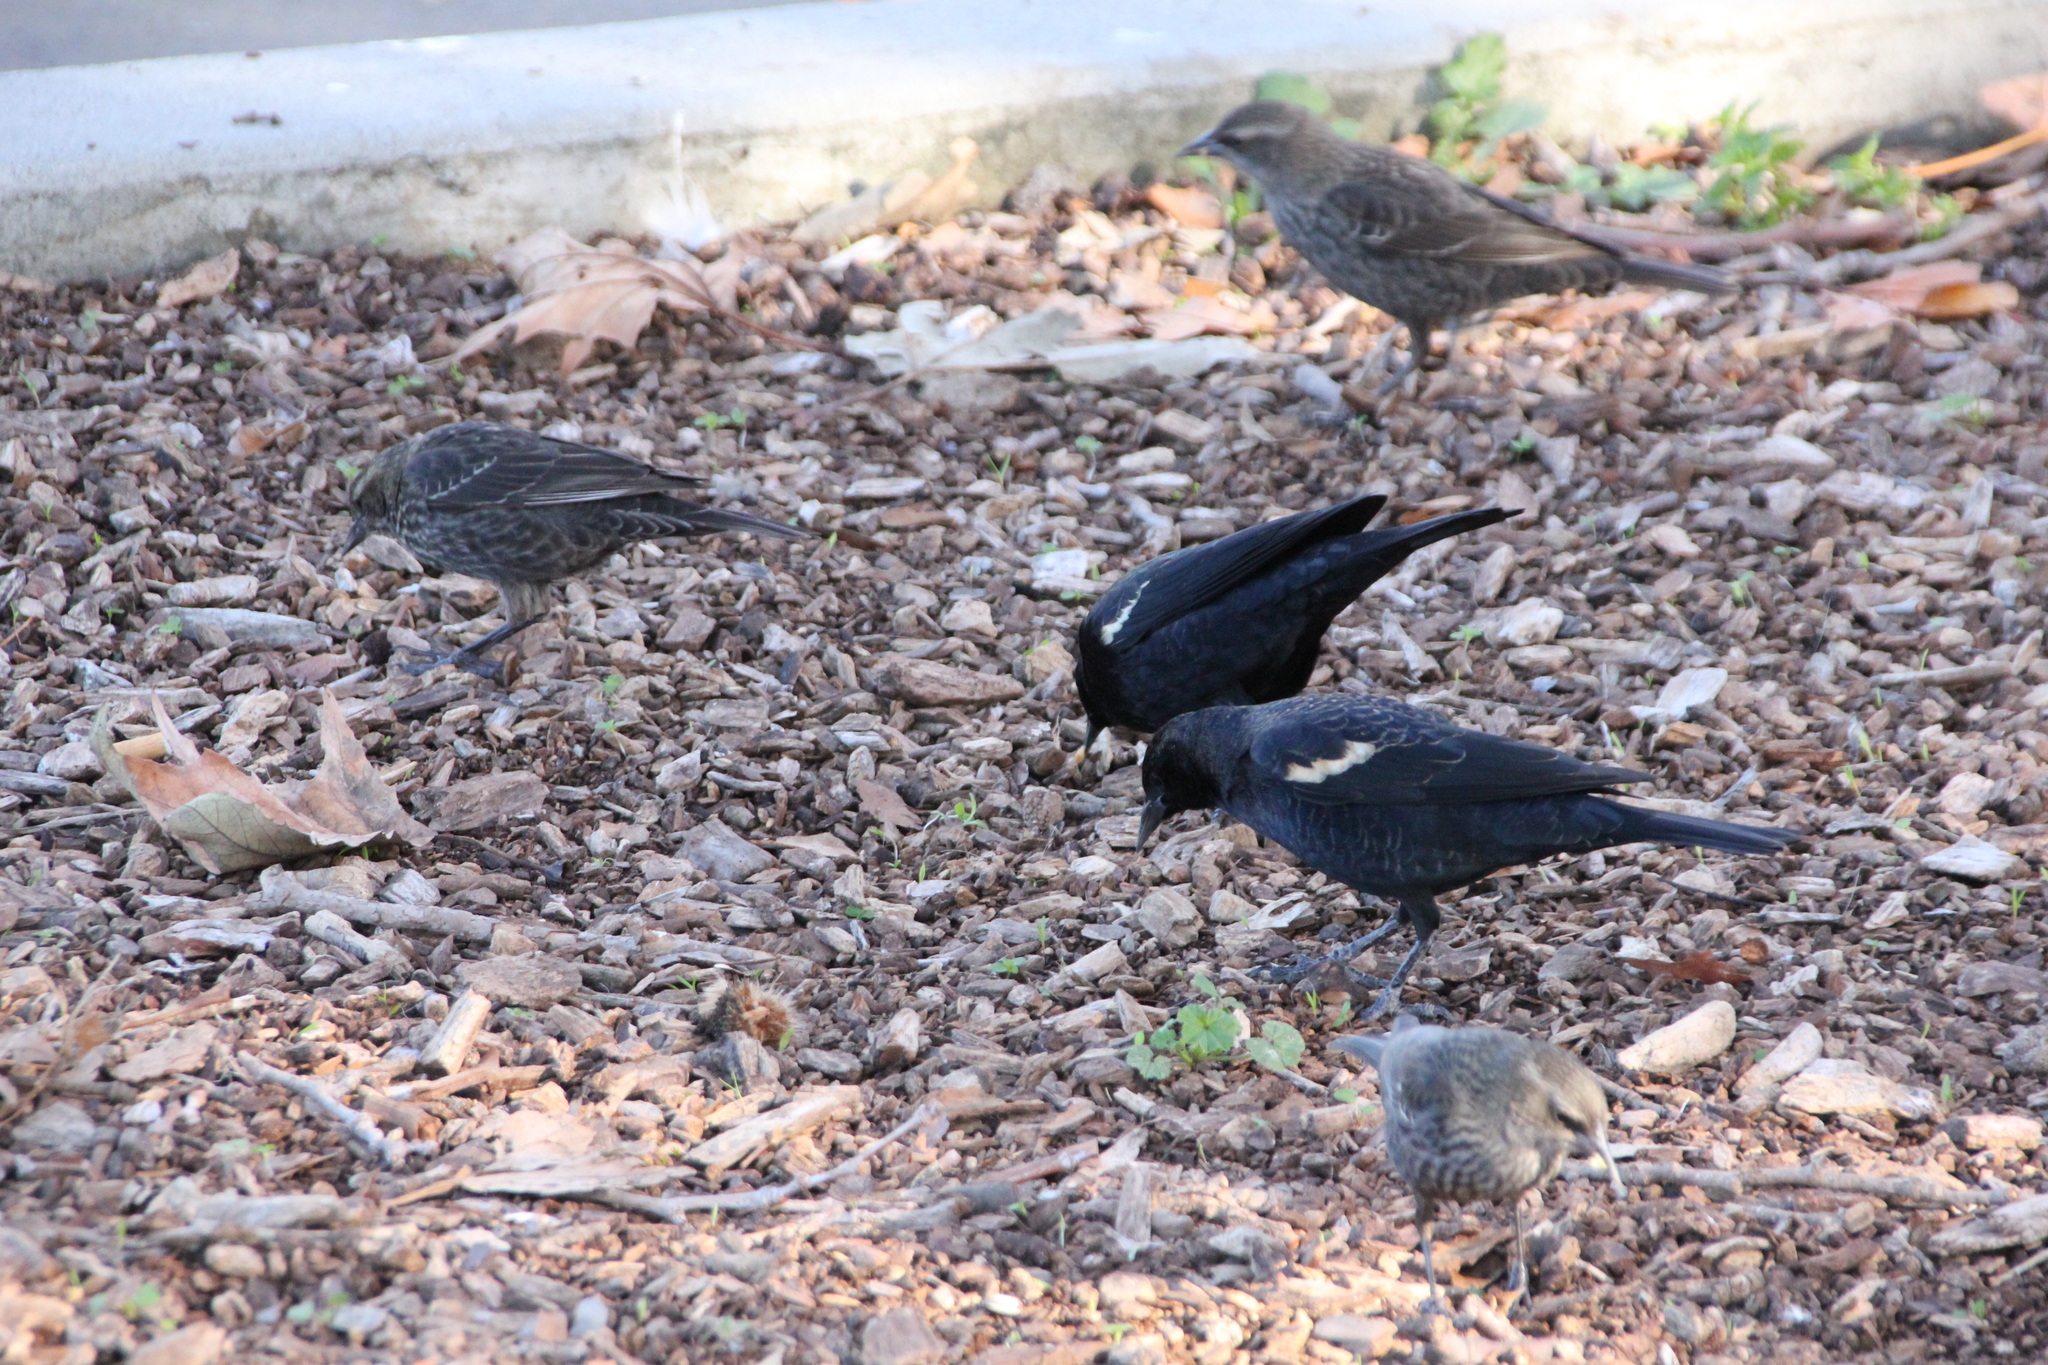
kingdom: Animalia
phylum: Chordata
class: Aves
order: Passeriformes
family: Icteridae
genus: Agelaius
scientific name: Agelaius tricolor
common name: Tricolored blackbird
